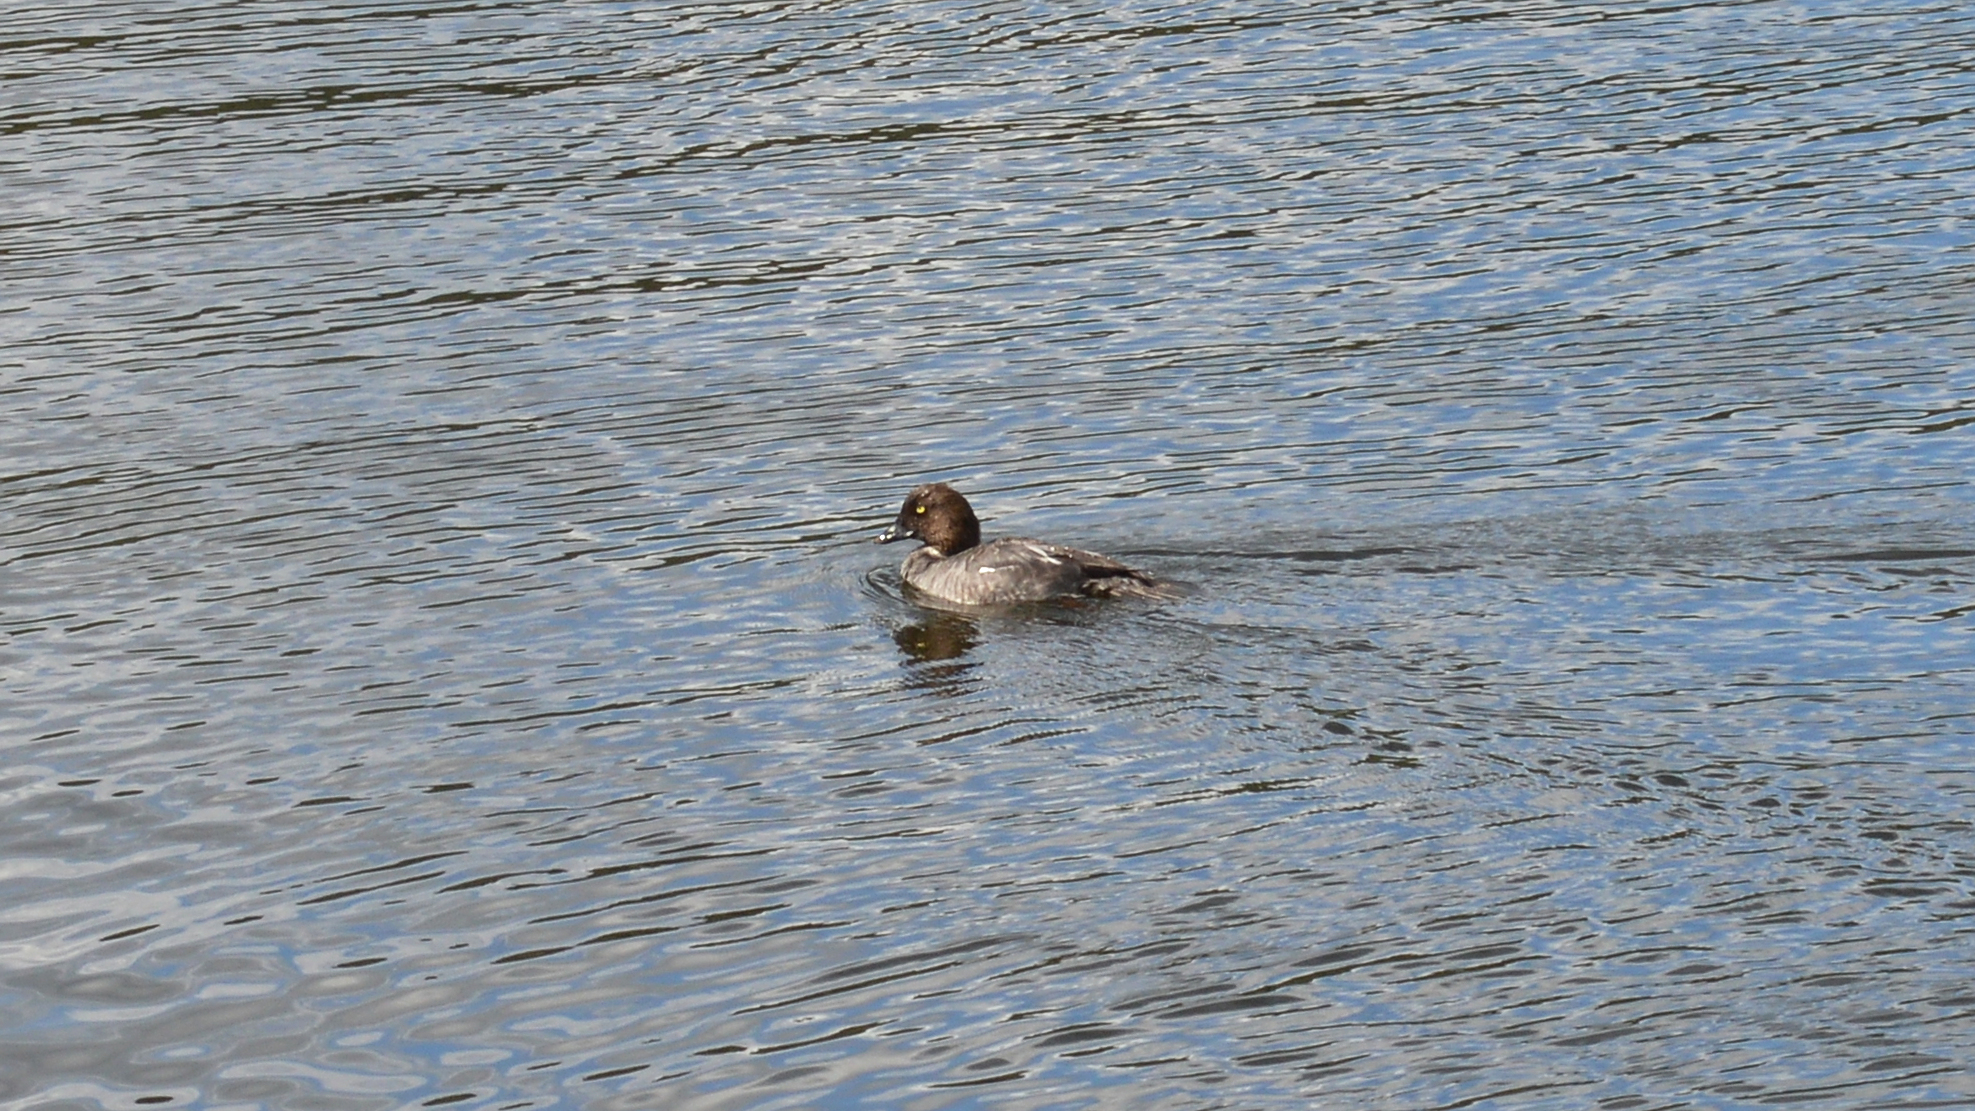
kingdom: Animalia
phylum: Chordata
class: Aves
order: Anseriformes
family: Anatidae
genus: Bucephala
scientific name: Bucephala clangula
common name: Common goldeneye
